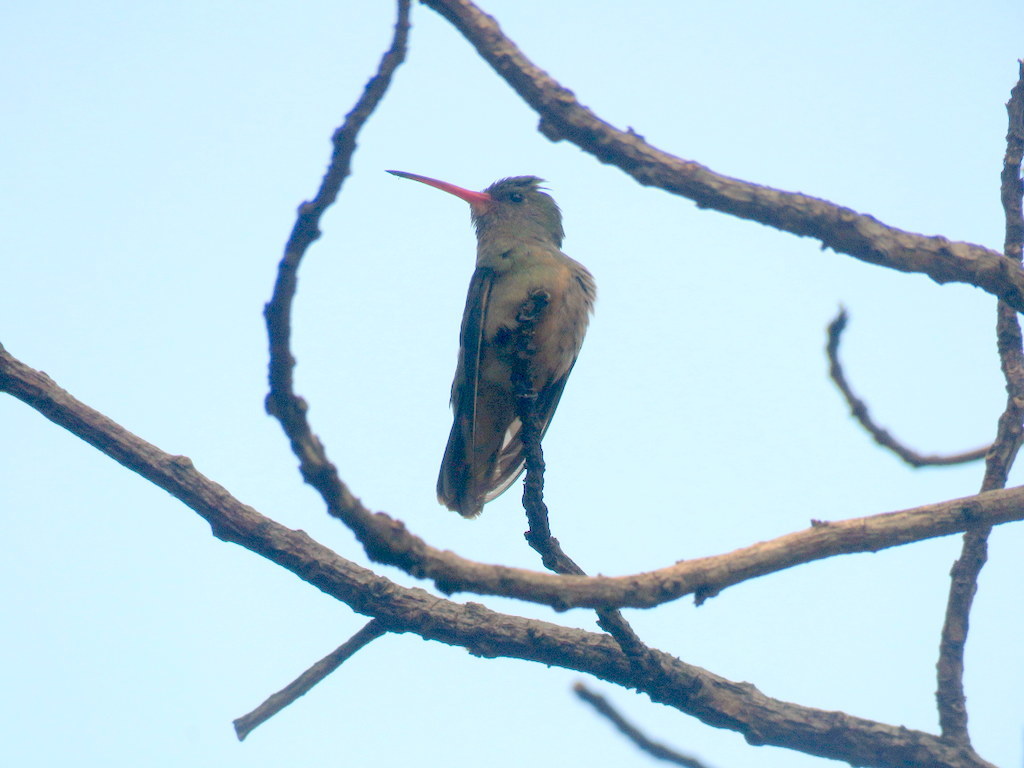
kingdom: Animalia
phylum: Chordata
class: Aves
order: Apodiformes
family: Trochilidae
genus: Hylocharis
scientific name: Hylocharis chrysura
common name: Gilded sapphire
